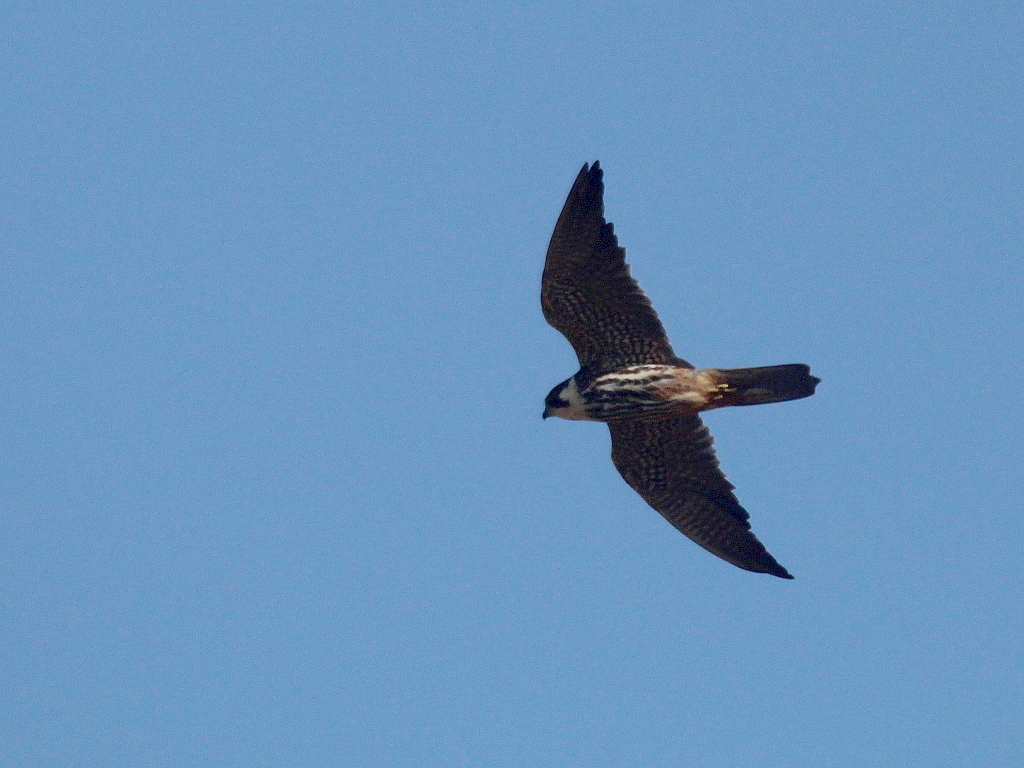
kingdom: Animalia
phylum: Chordata
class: Aves
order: Falconiformes
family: Falconidae
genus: Falco
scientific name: Falco subbuteo
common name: Eurasian hobby
